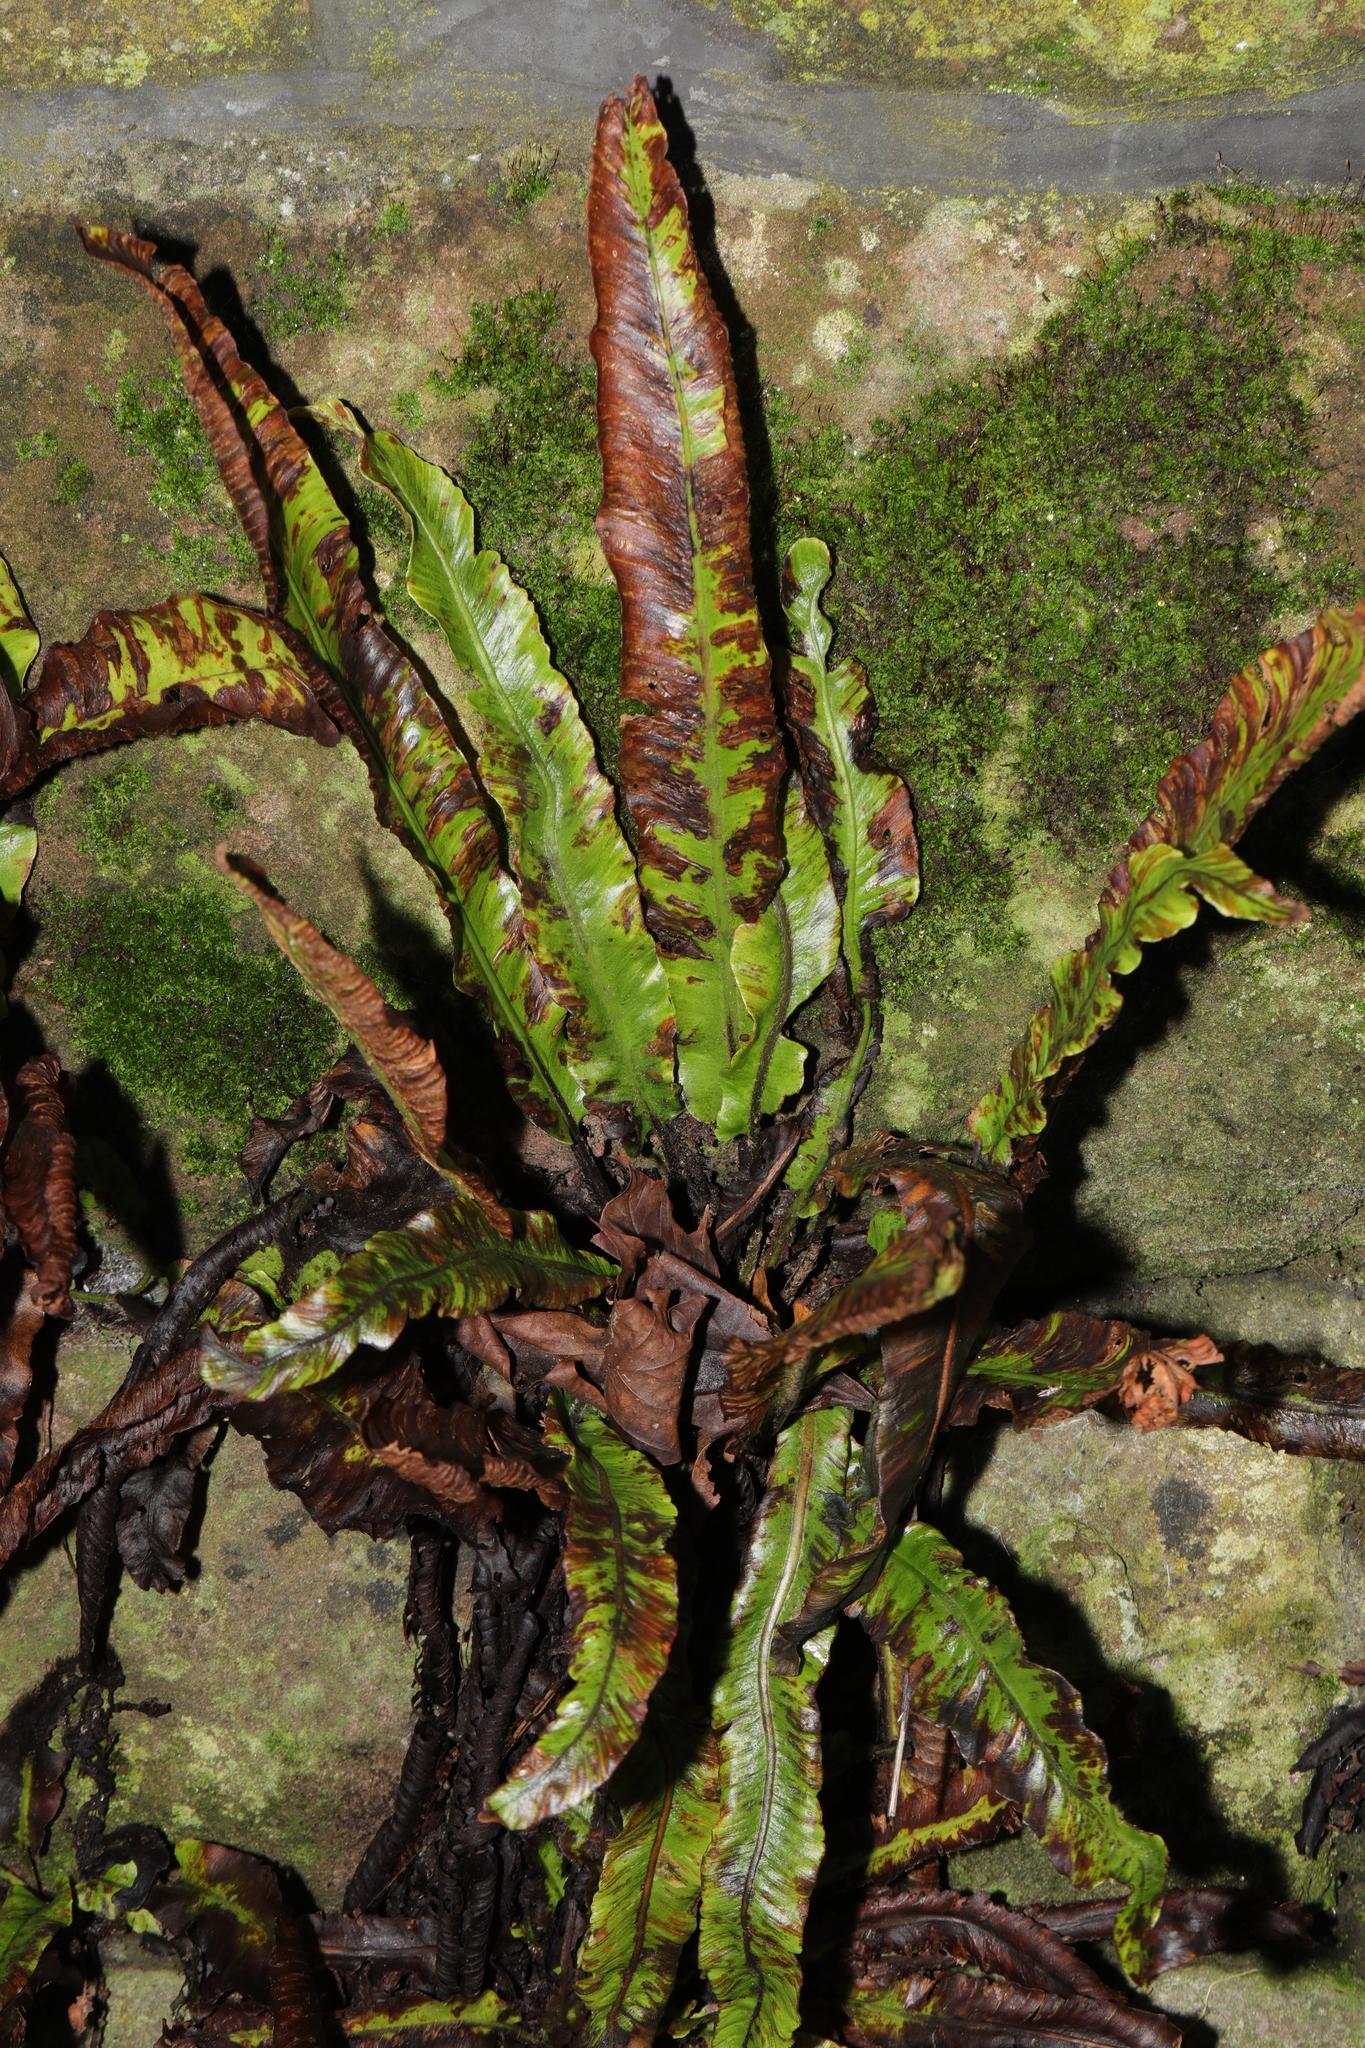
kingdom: Plantae
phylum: Tracheophyta
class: Polypodiopsida
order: Polypodiales
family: Aspleniaceae
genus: Asplenium
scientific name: Asplenium scolopendrium
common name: Hart's-tongue fern
